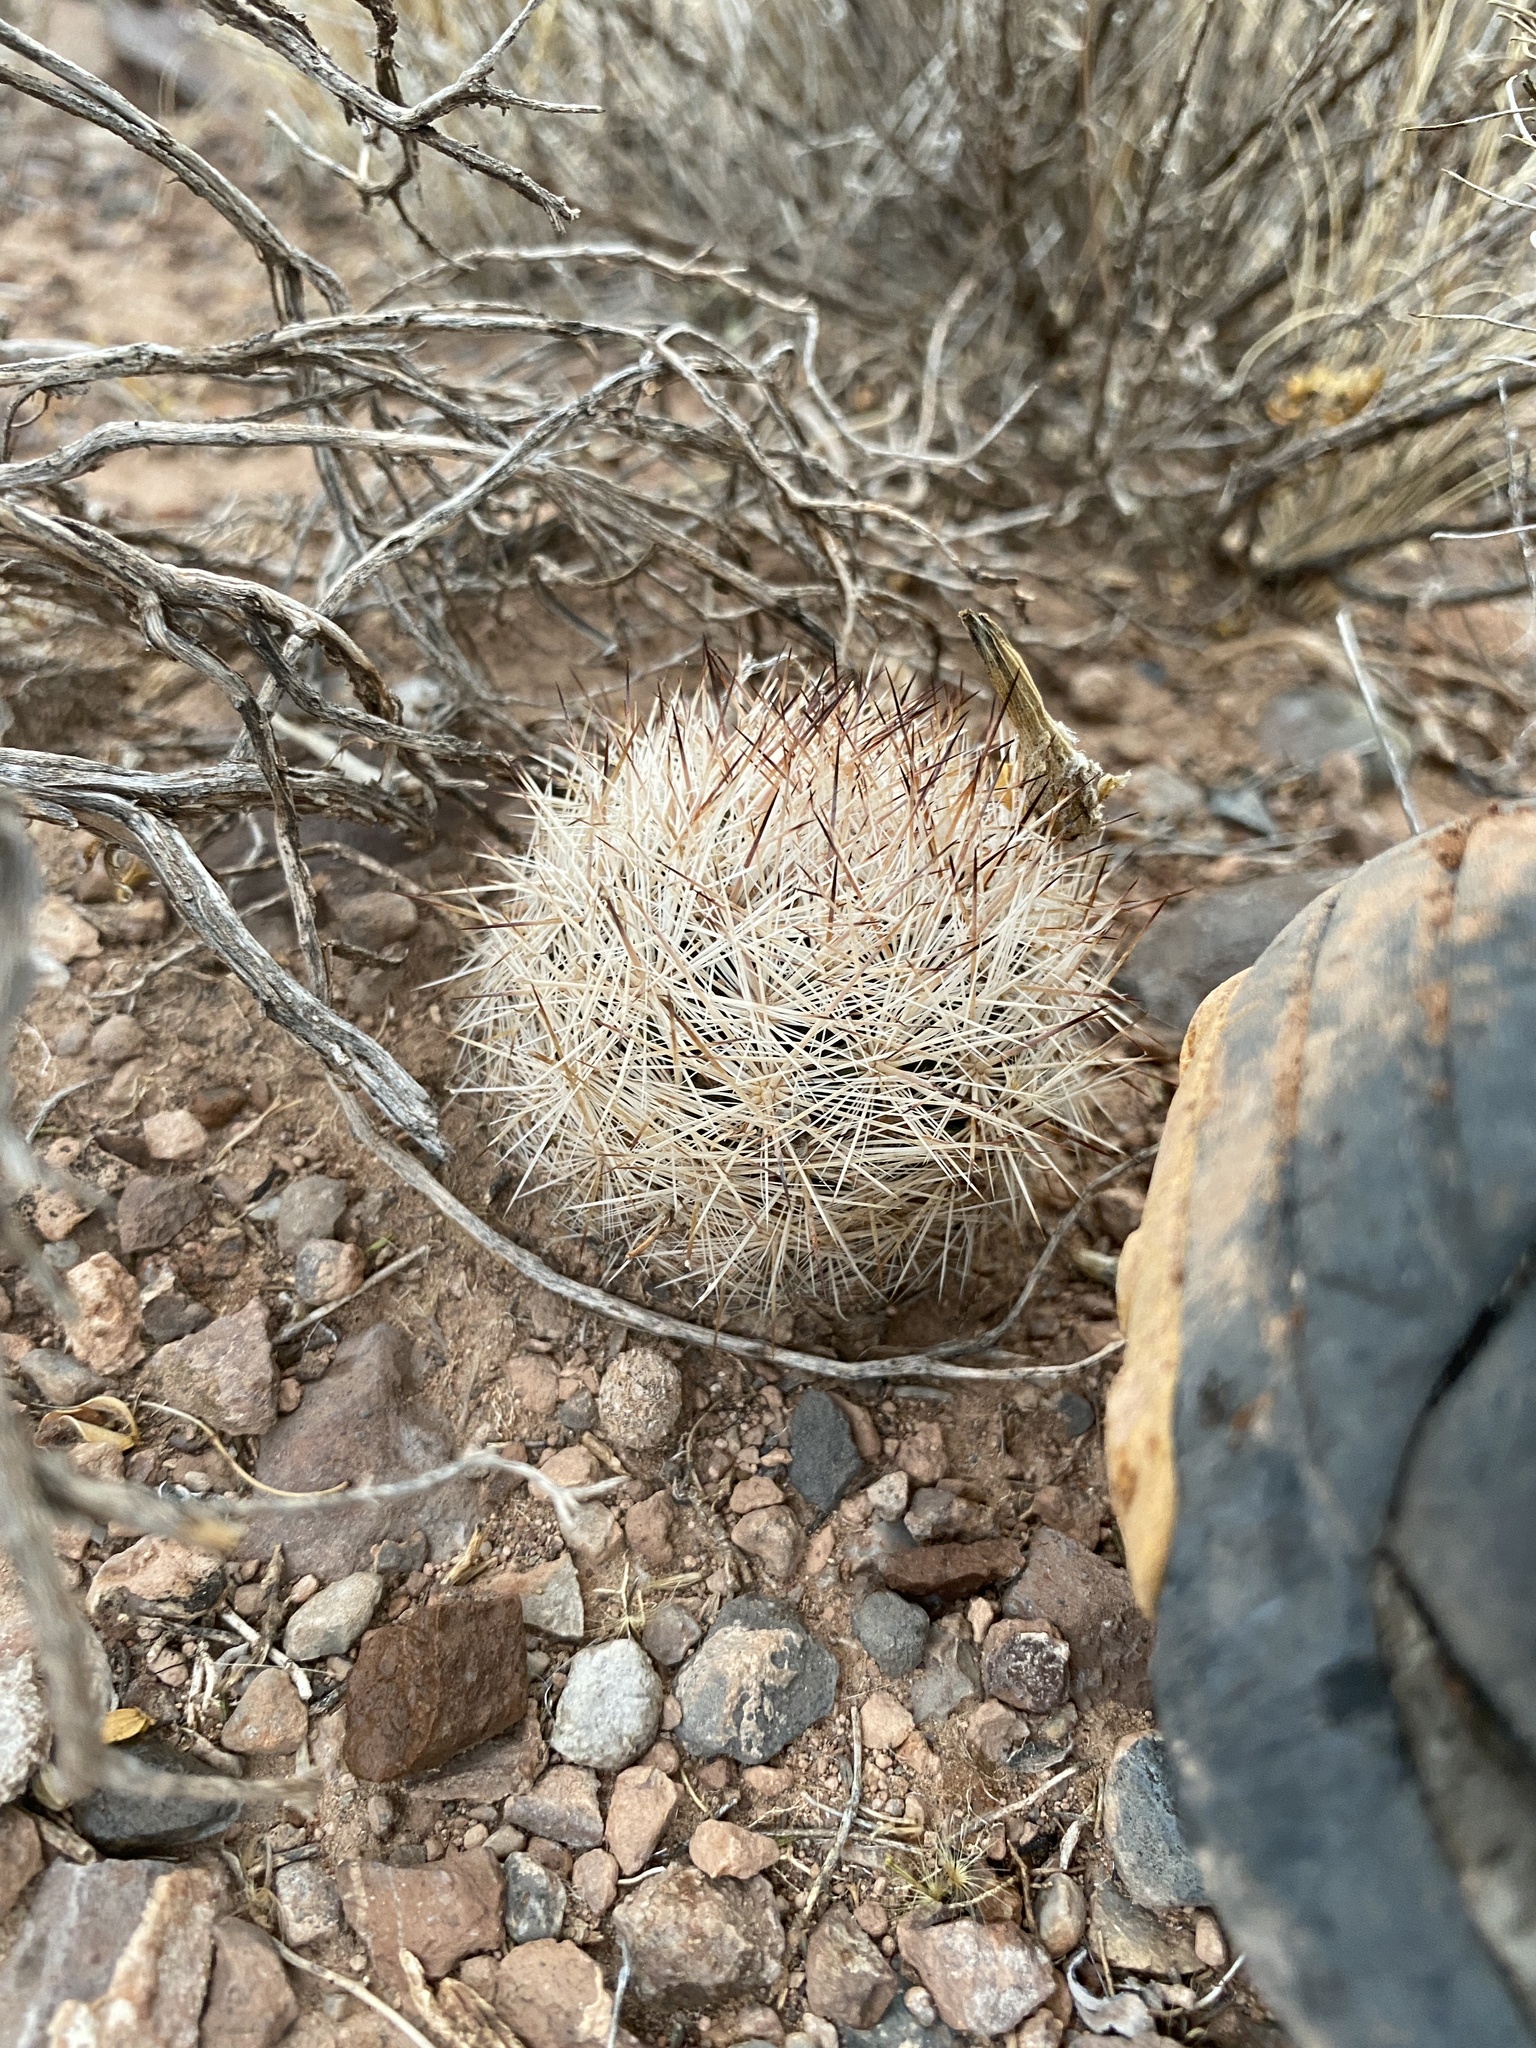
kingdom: Plantae
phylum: Tracheophyta
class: Magnoliopsida
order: Caryophyllales
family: Cactaceae
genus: Pelecyphora
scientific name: Pelecyphora vivipara
